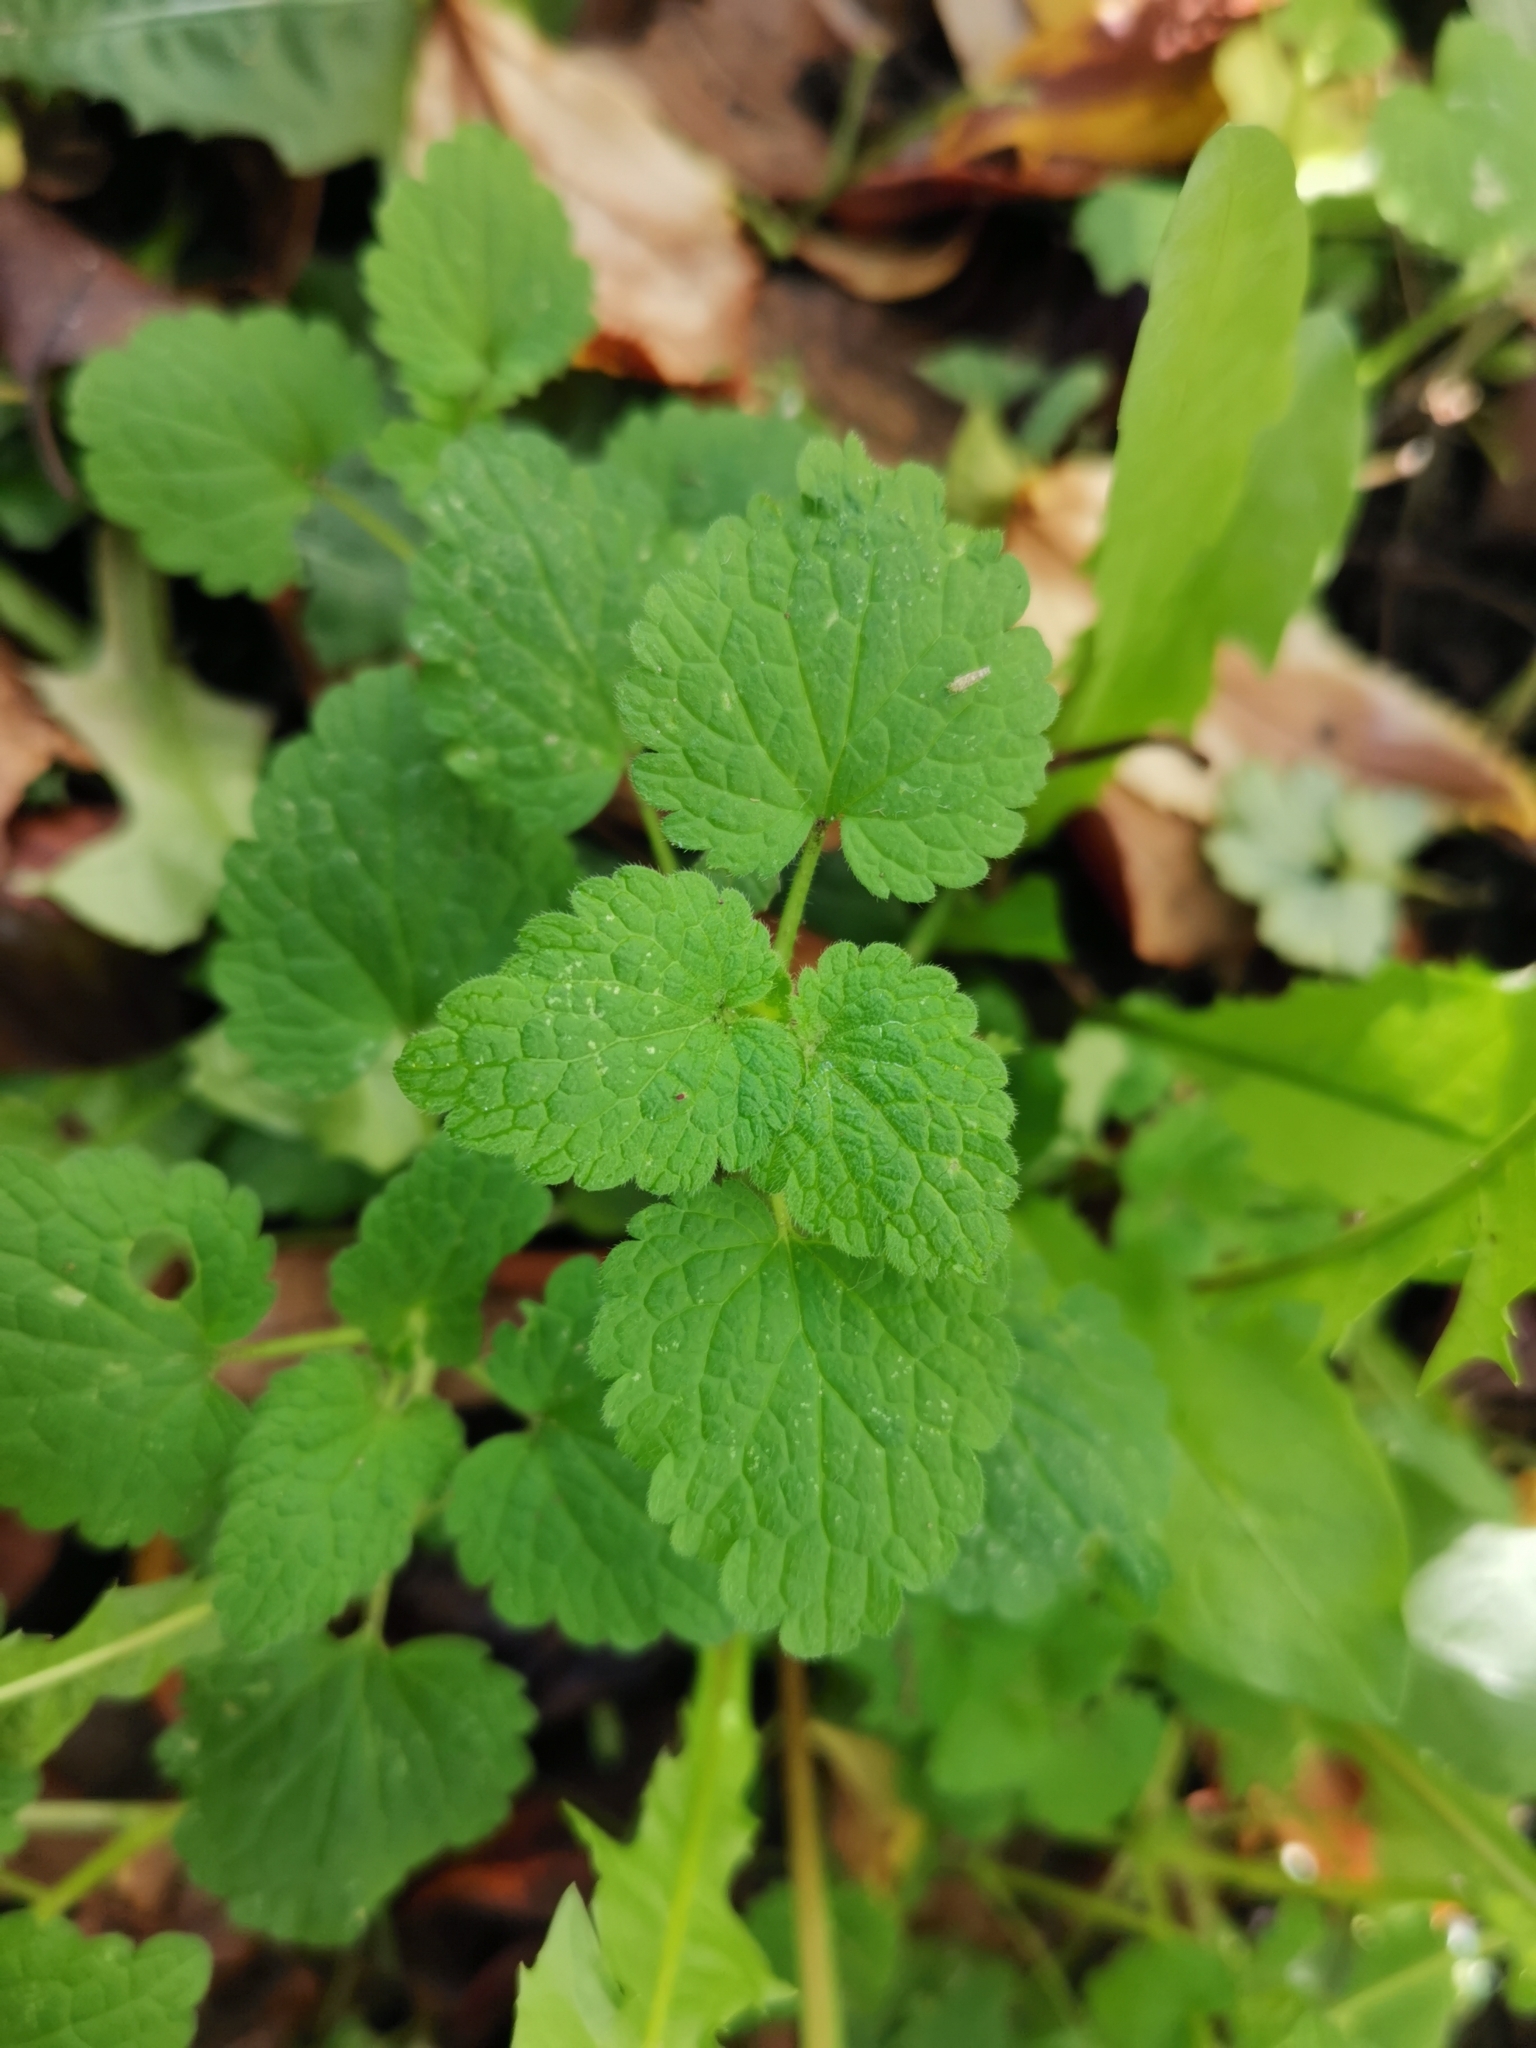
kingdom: Plantae
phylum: Tracheophyta
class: Magnoliopsida
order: Lamiales
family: Lamiaceae
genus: Lamium
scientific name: Lamium purpureum
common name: Red dead-nettle
